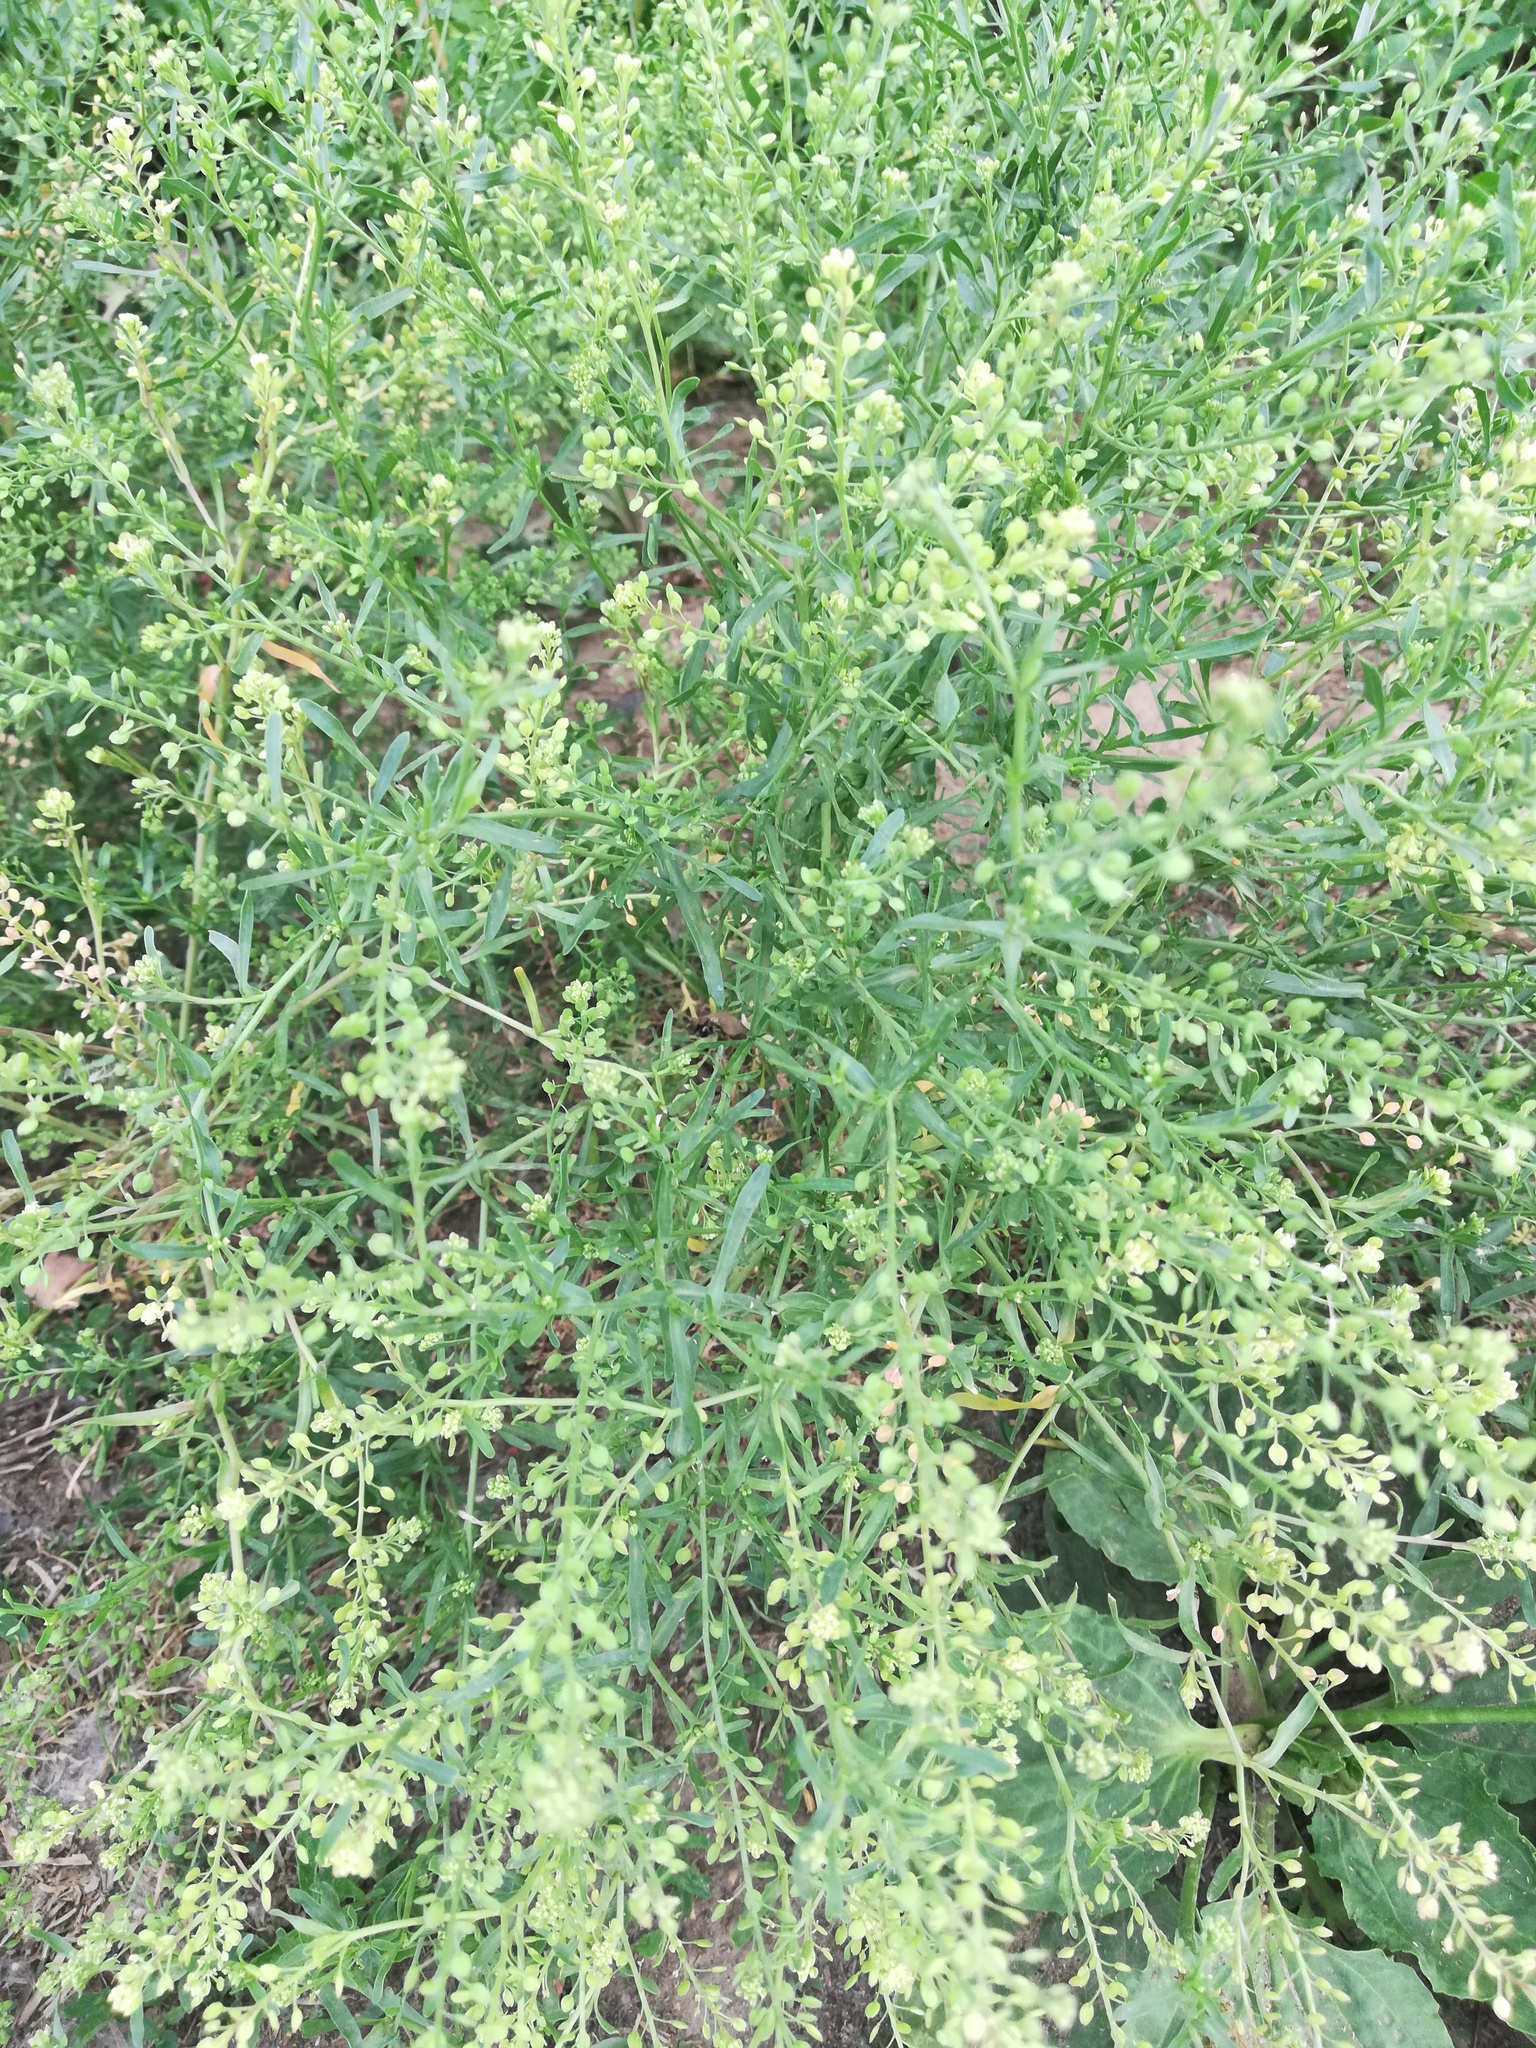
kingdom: Plantae
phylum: Tracheophyta
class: Magnoliopsida
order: Brassicales
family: Brassicaceae
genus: Lepidium
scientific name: Lepidium ruderale
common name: Narrow-leaved pepperwort
